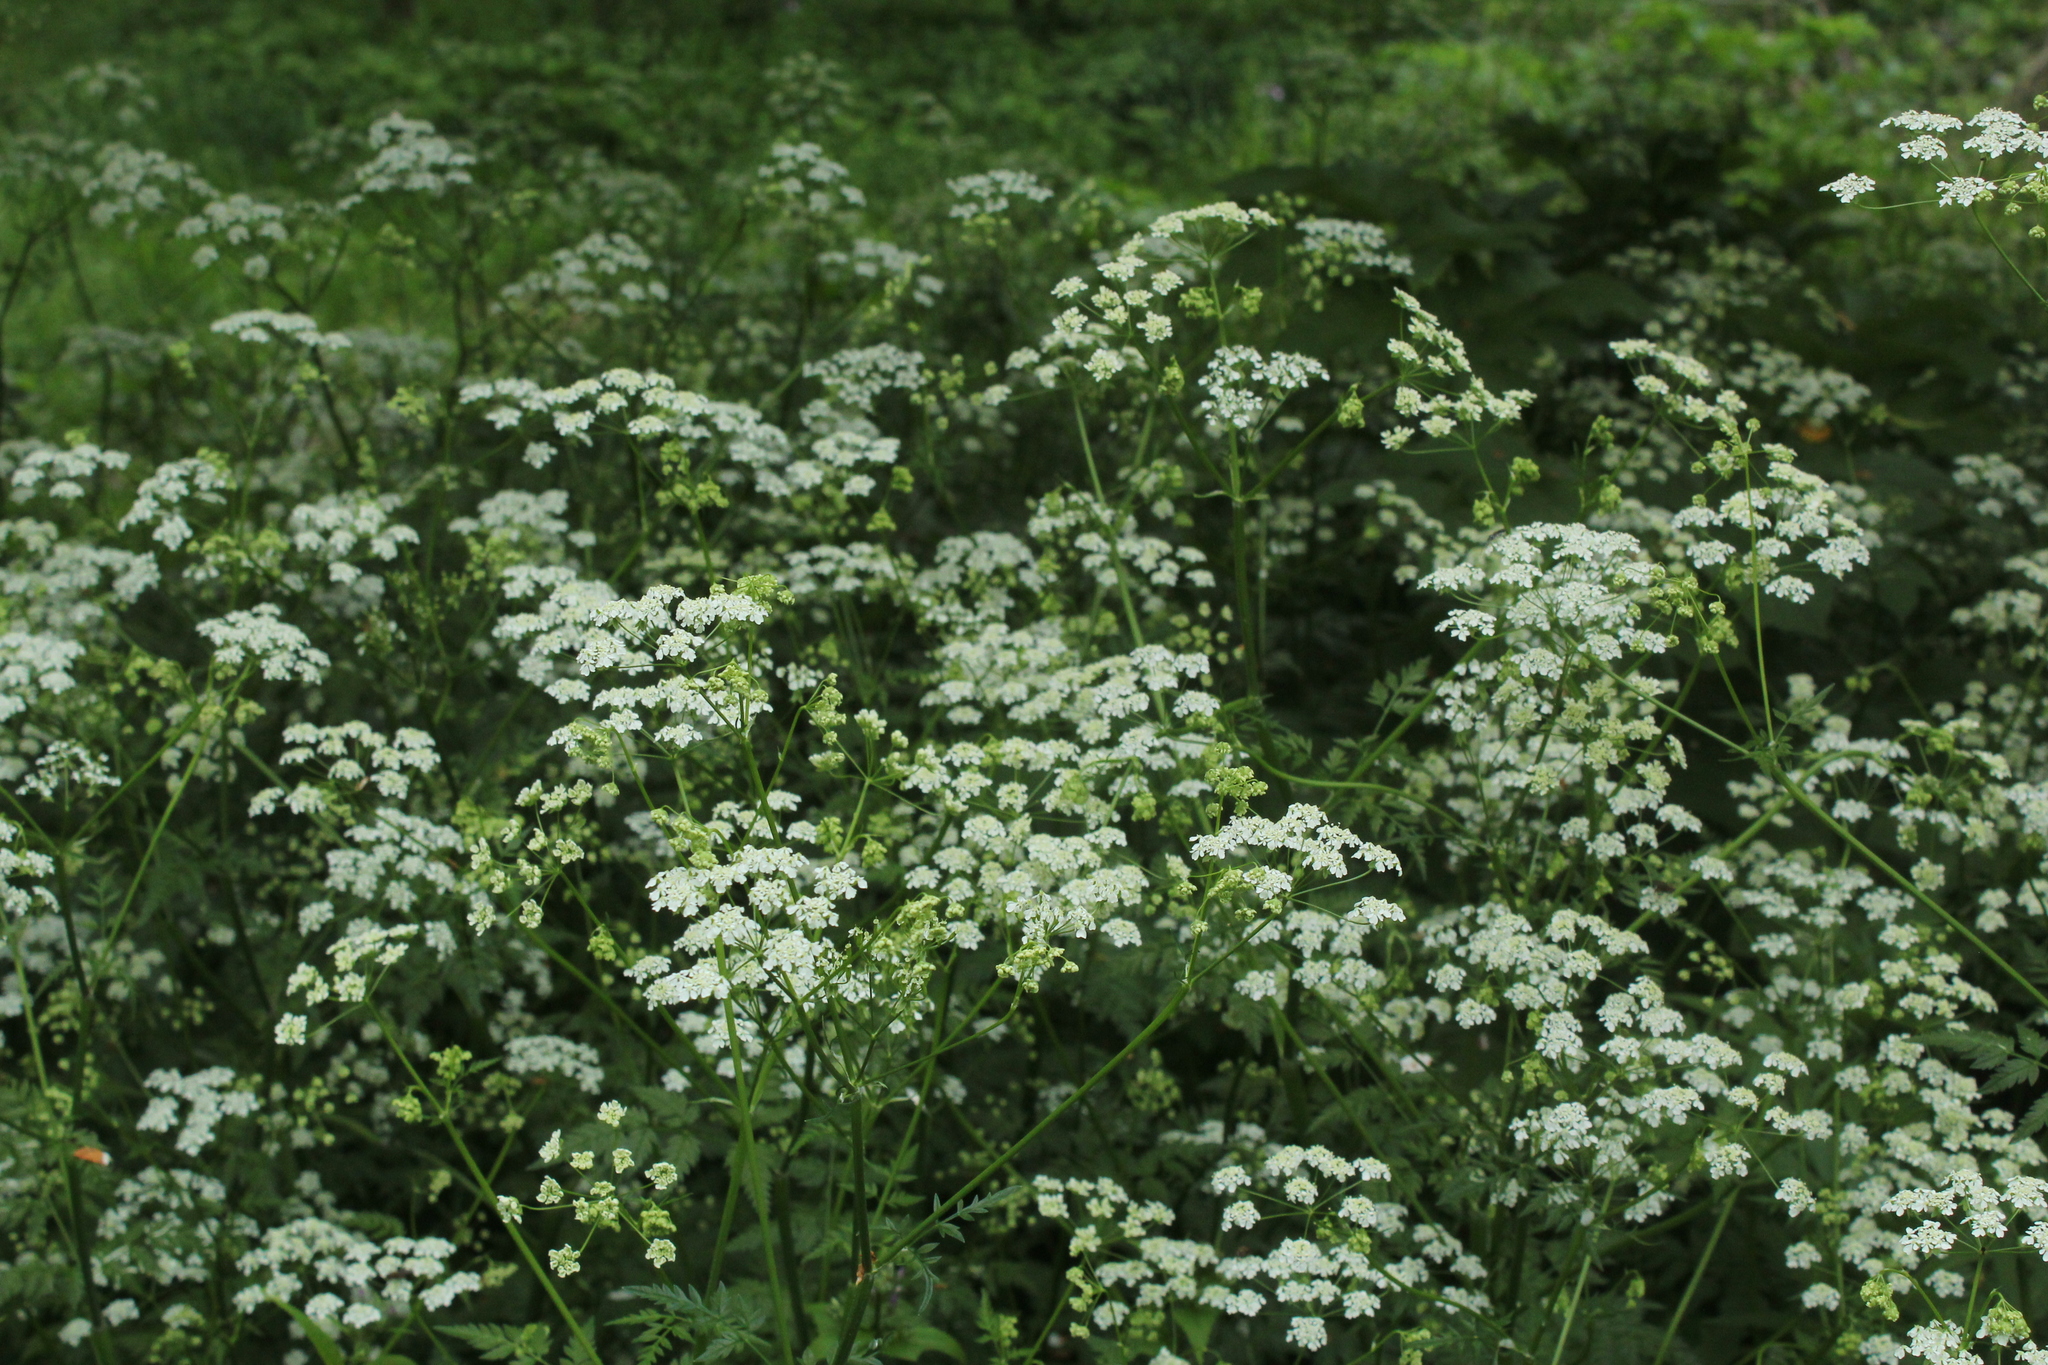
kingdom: Plantae
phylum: Tracheophyta
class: Magnoliopsida
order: Apiales
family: Apiaceae
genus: Anthriscus
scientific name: Anthriscus sylvestris
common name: Cow parsley
